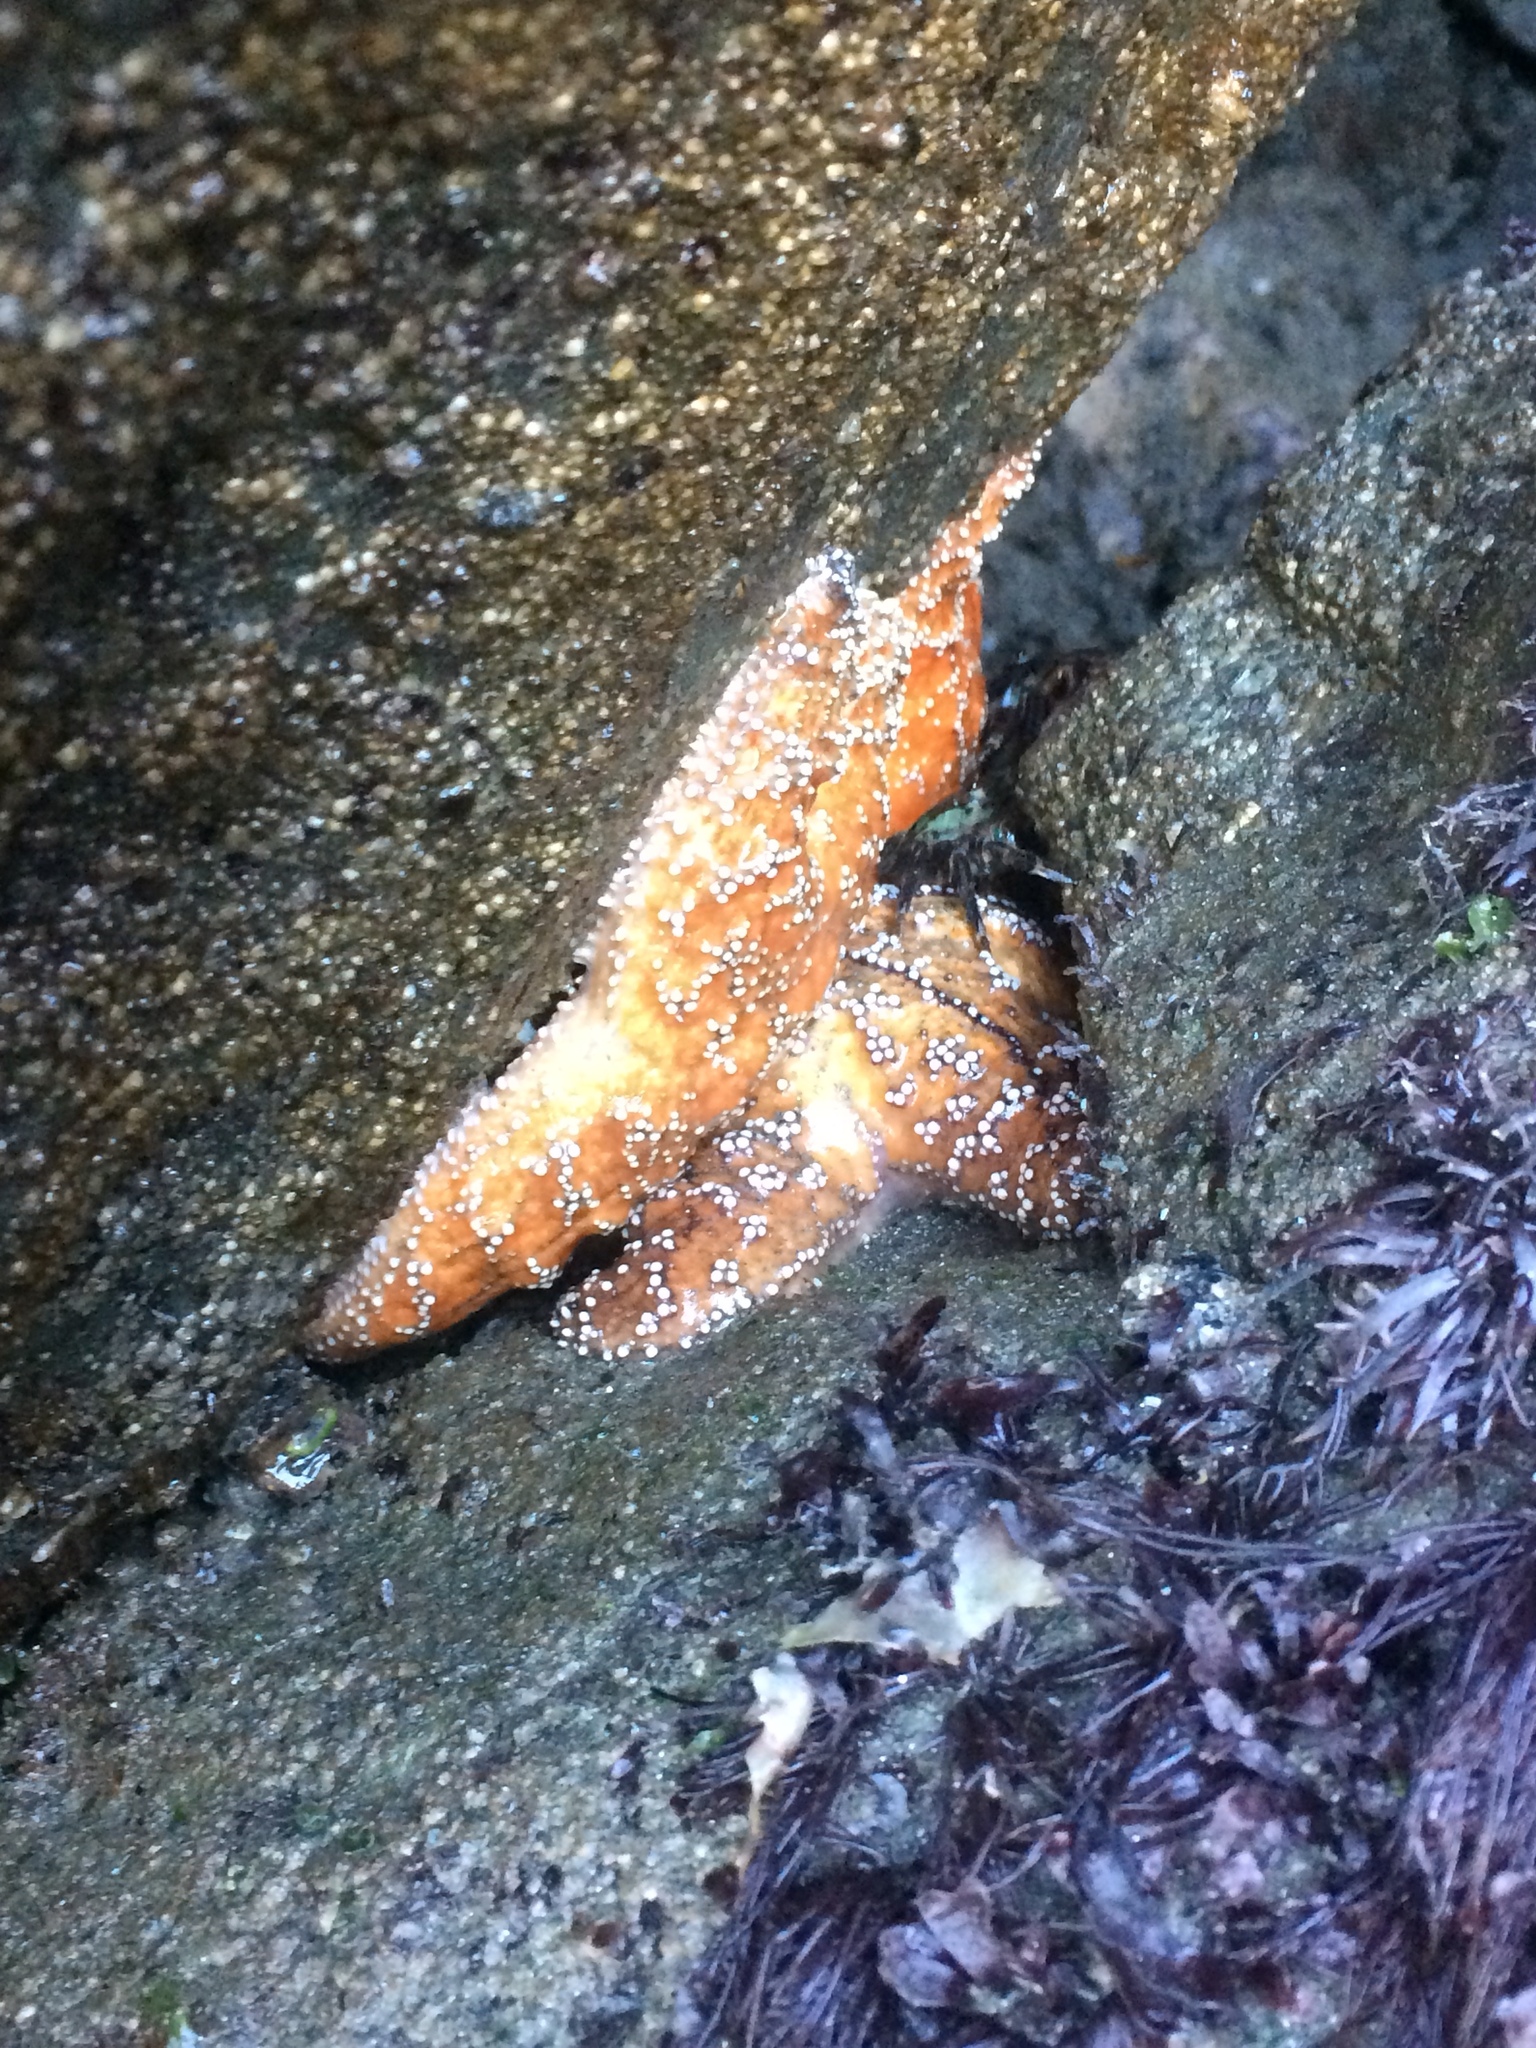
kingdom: Animalia
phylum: Echinodermata
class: Asteroidea
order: Forcipulatida
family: Asteriidae
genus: Pisaster
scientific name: Pisaster ochraceus
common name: Ochre stars
